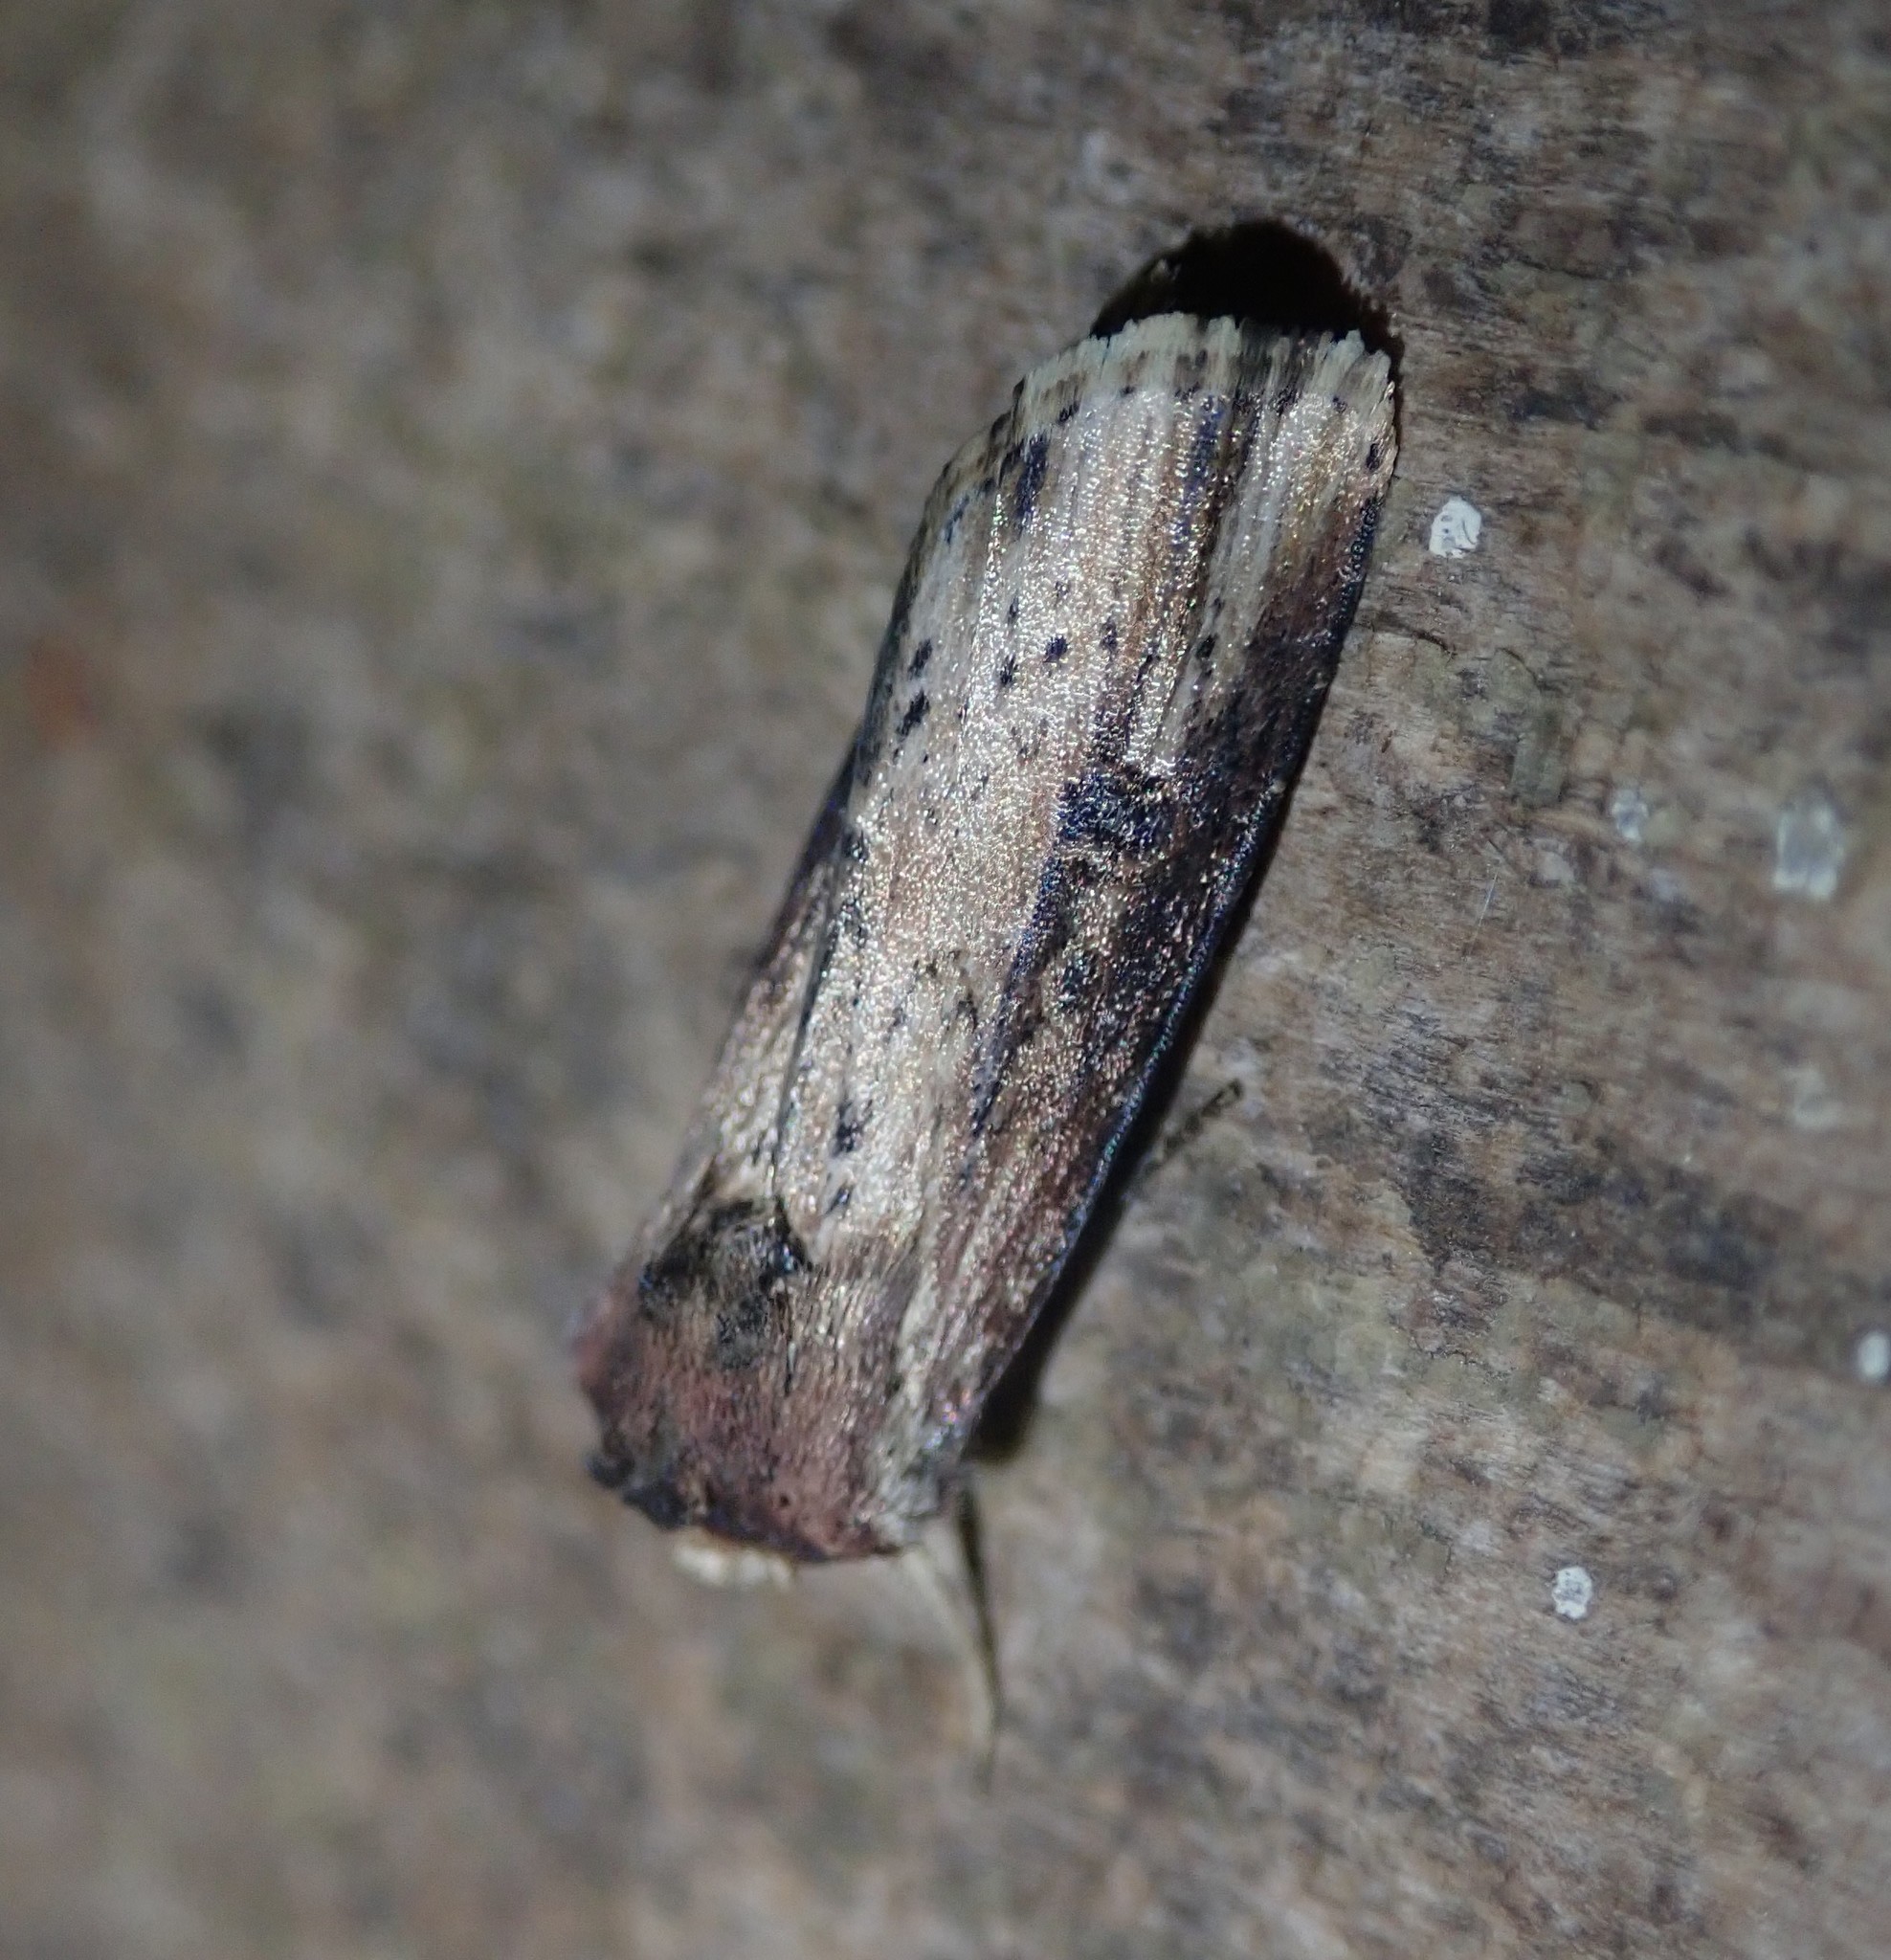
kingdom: Animalia
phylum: Arthropoda
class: Insecta
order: Lepidoptera
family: Noctuidae
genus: Axylia
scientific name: Axylia putris
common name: Flame
